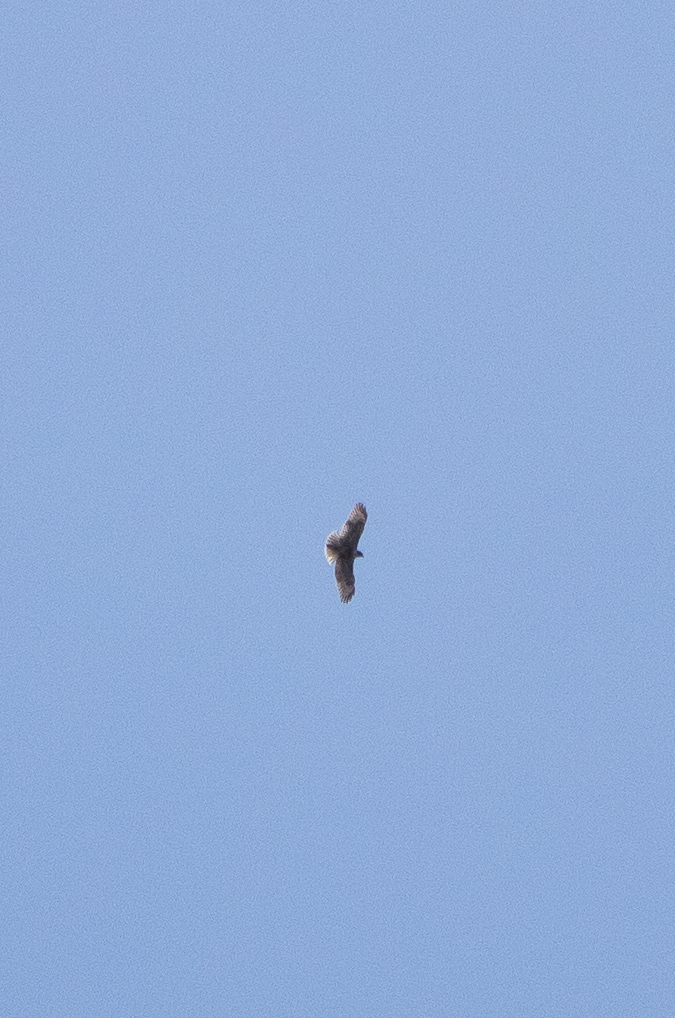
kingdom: Animalia
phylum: Chordata
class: Aves
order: Accipitriformes
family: Accipitridae
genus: Buteo
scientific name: Buteo jamaicensis
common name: Red-tailed hawk
